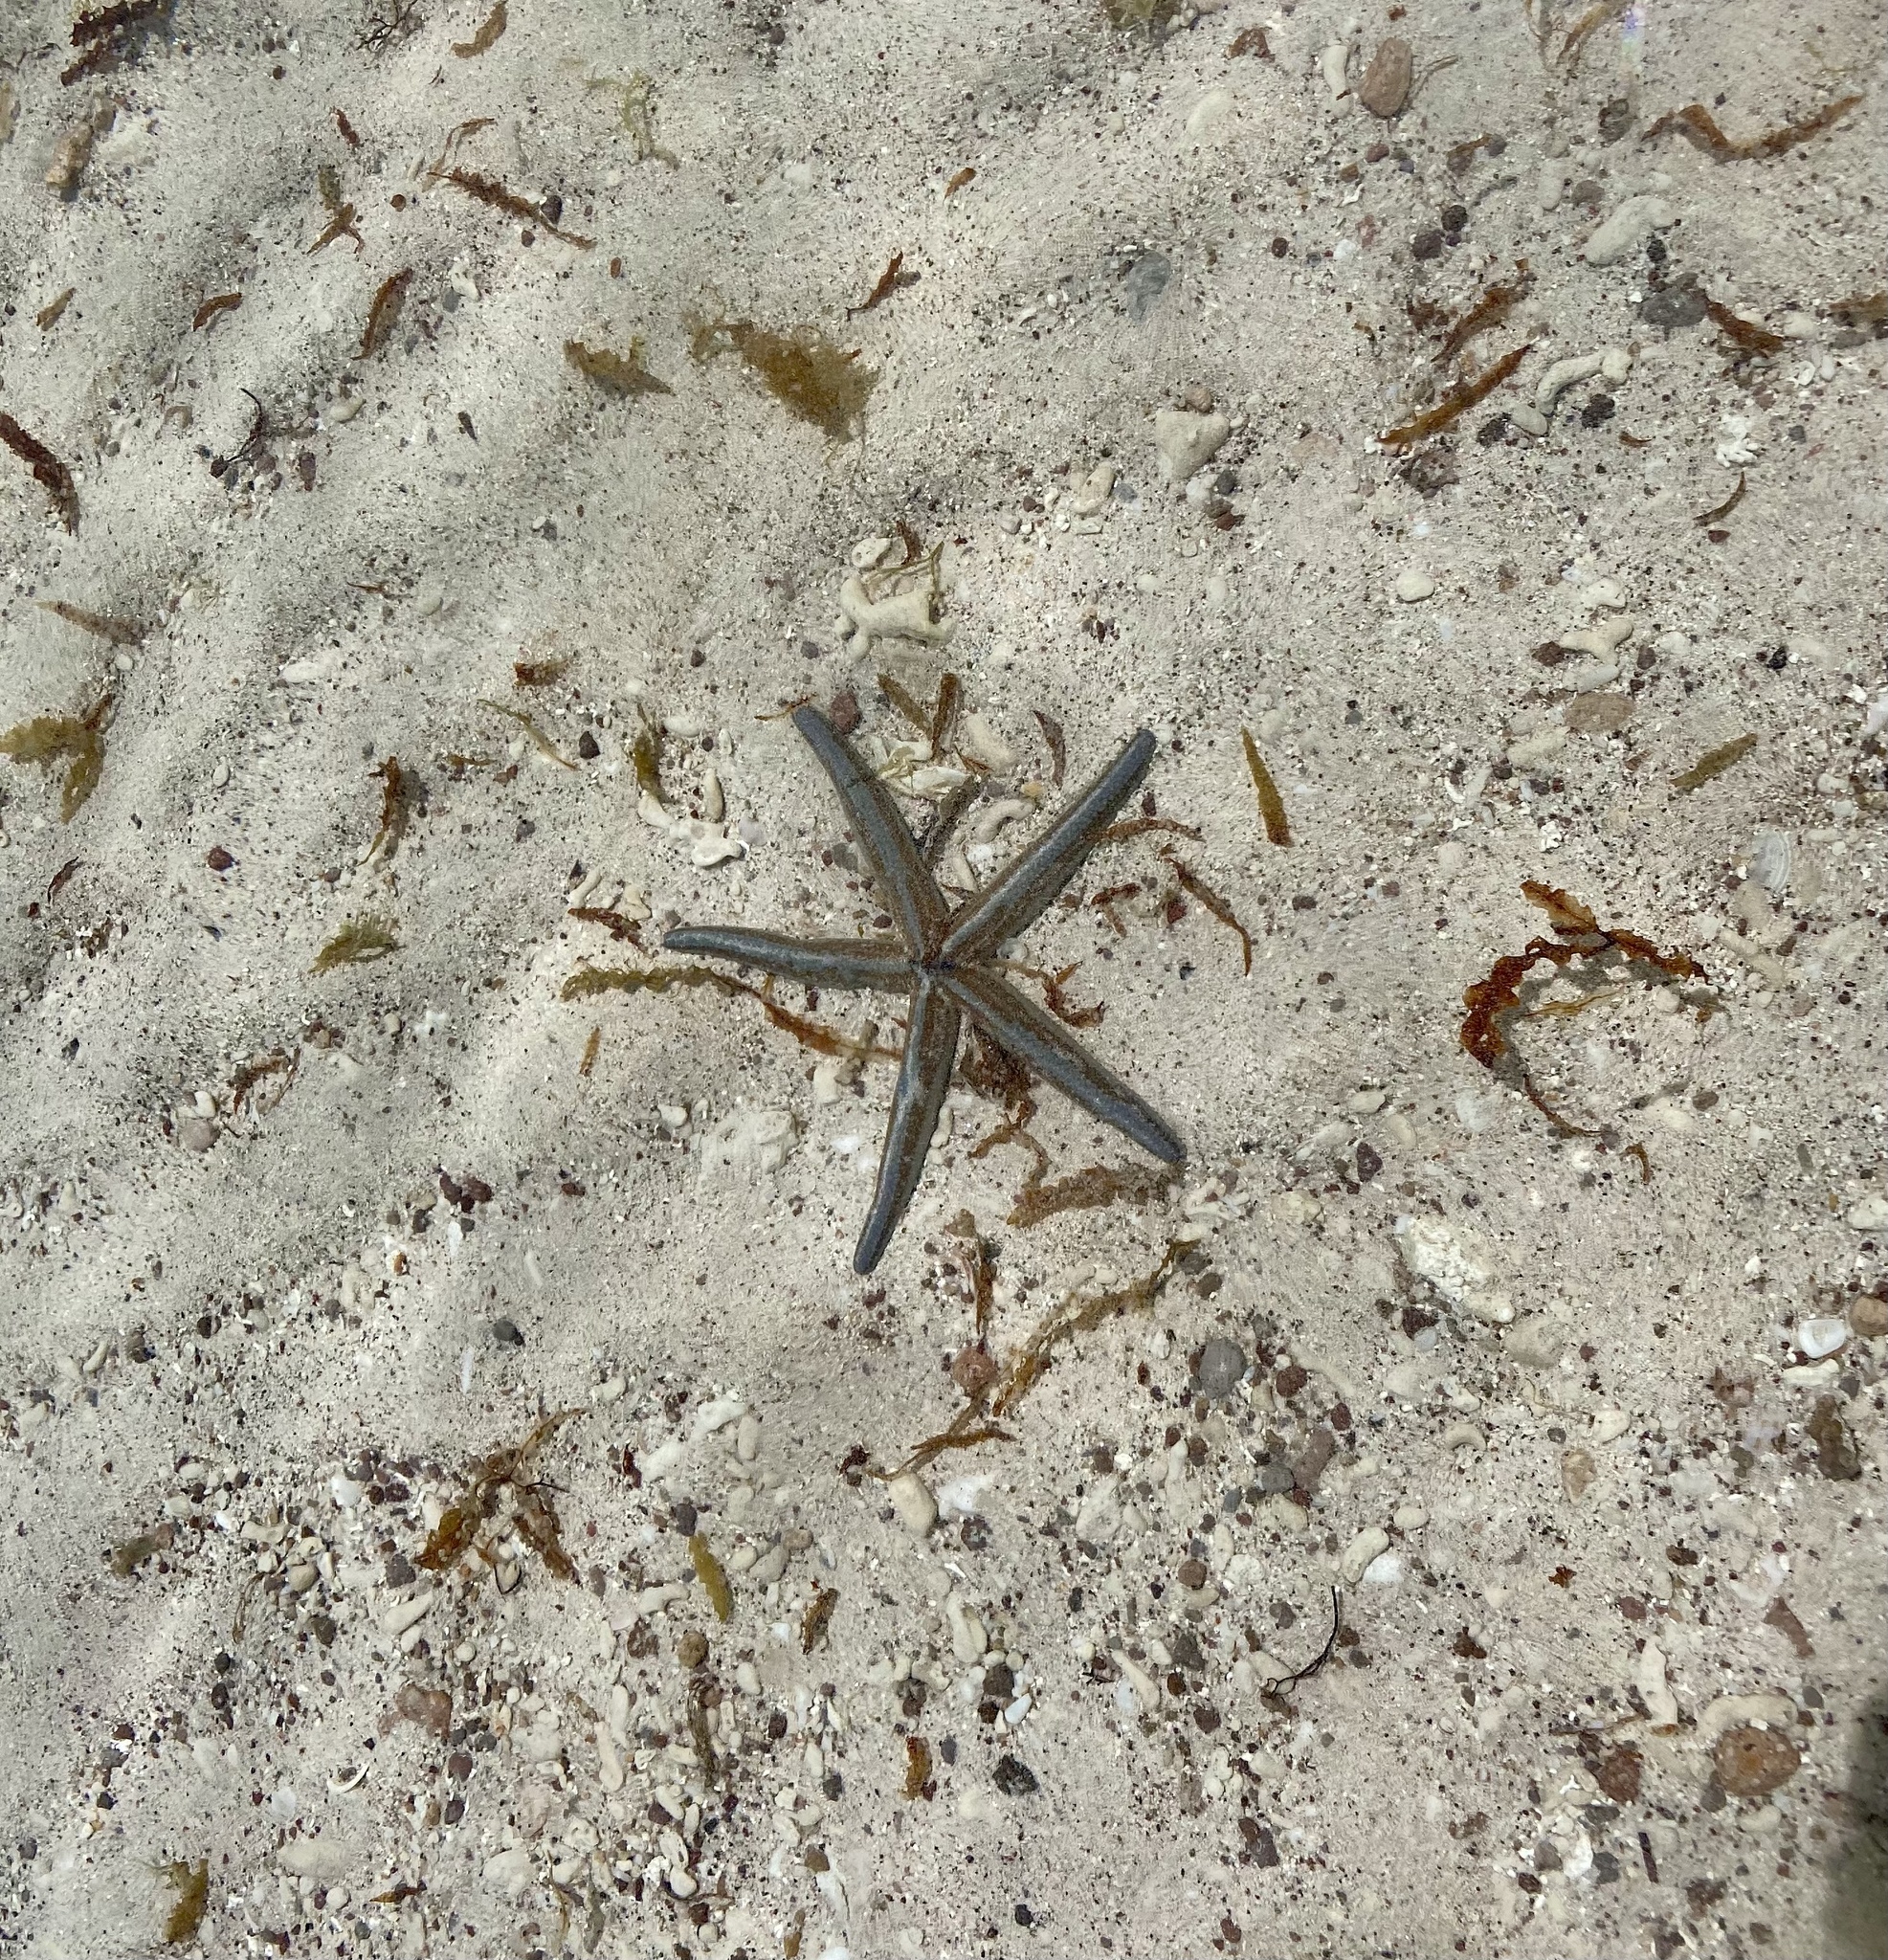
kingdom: Animalia
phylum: Echinodermata
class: Asteroidea
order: Valvatida
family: Ophidiasteridae
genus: Phataria
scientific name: Phataria unifascialis
